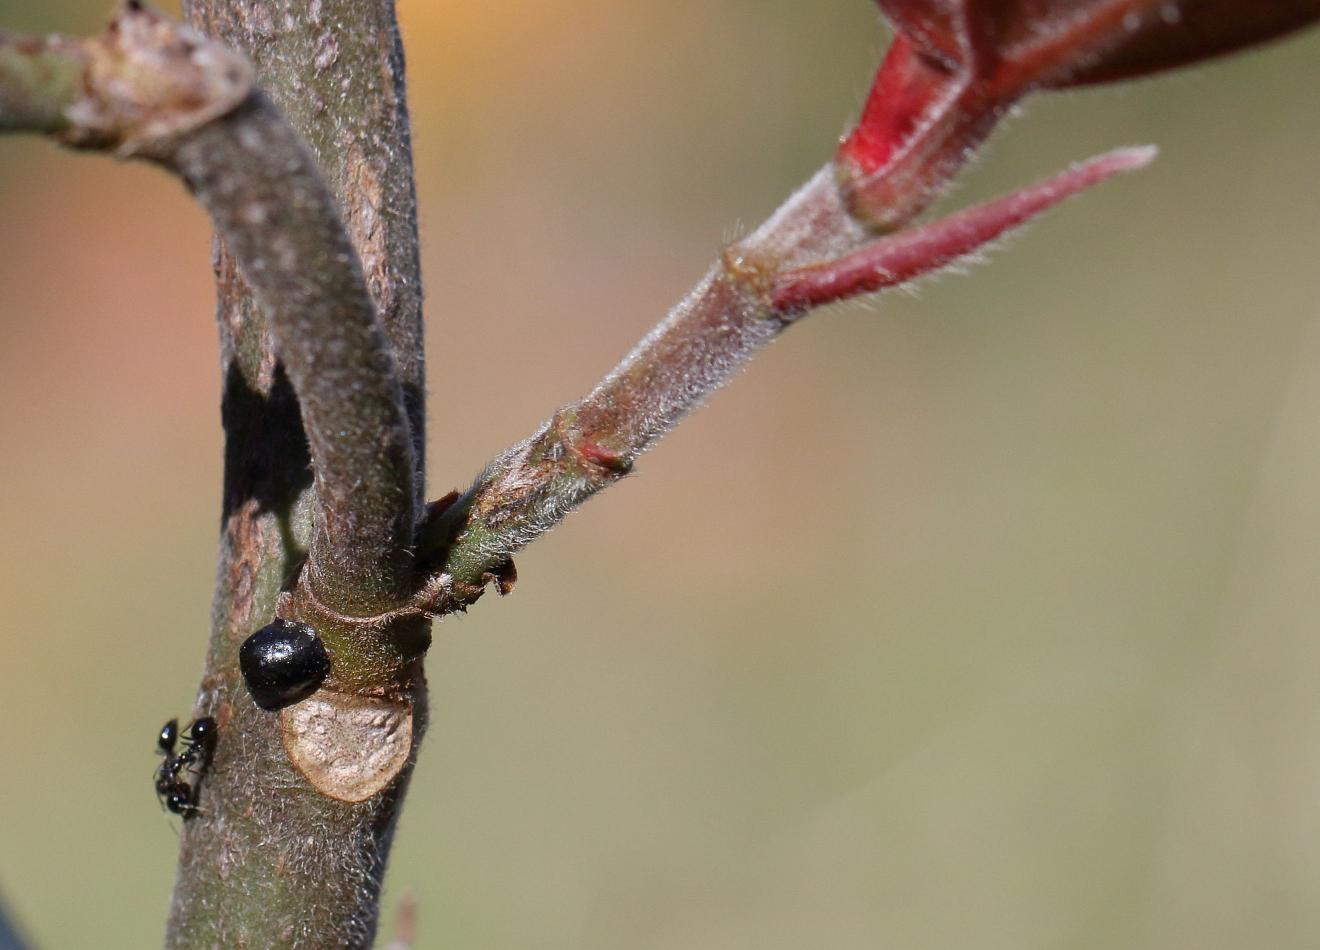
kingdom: Plantae
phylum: Tracheophyta
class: Magnoliopsida
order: Rosales
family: Moraceae
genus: Ficus
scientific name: Ficus sur
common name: Cape fig
